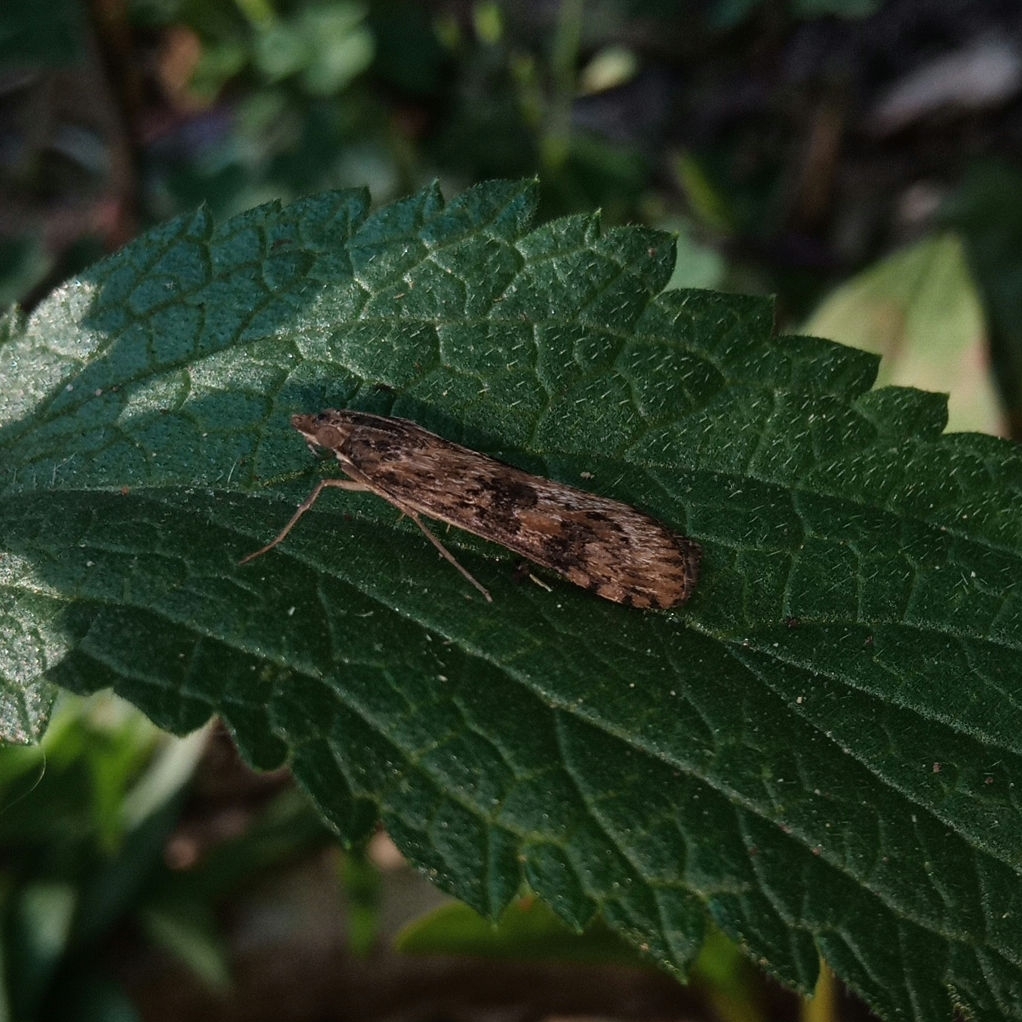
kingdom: Animalia
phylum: Arthropoda
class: Insecta
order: Lepidoptera
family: Crambidae
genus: Nomophila
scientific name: Nomophila nearctica
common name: American rush veneer
